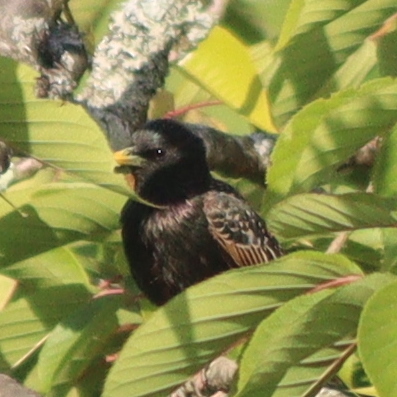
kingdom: Animalia
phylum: Chordata
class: Aves
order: Passeriformes
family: Sturnidae
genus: Sturnus
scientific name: Sturnus vulgaris
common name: Common starling
